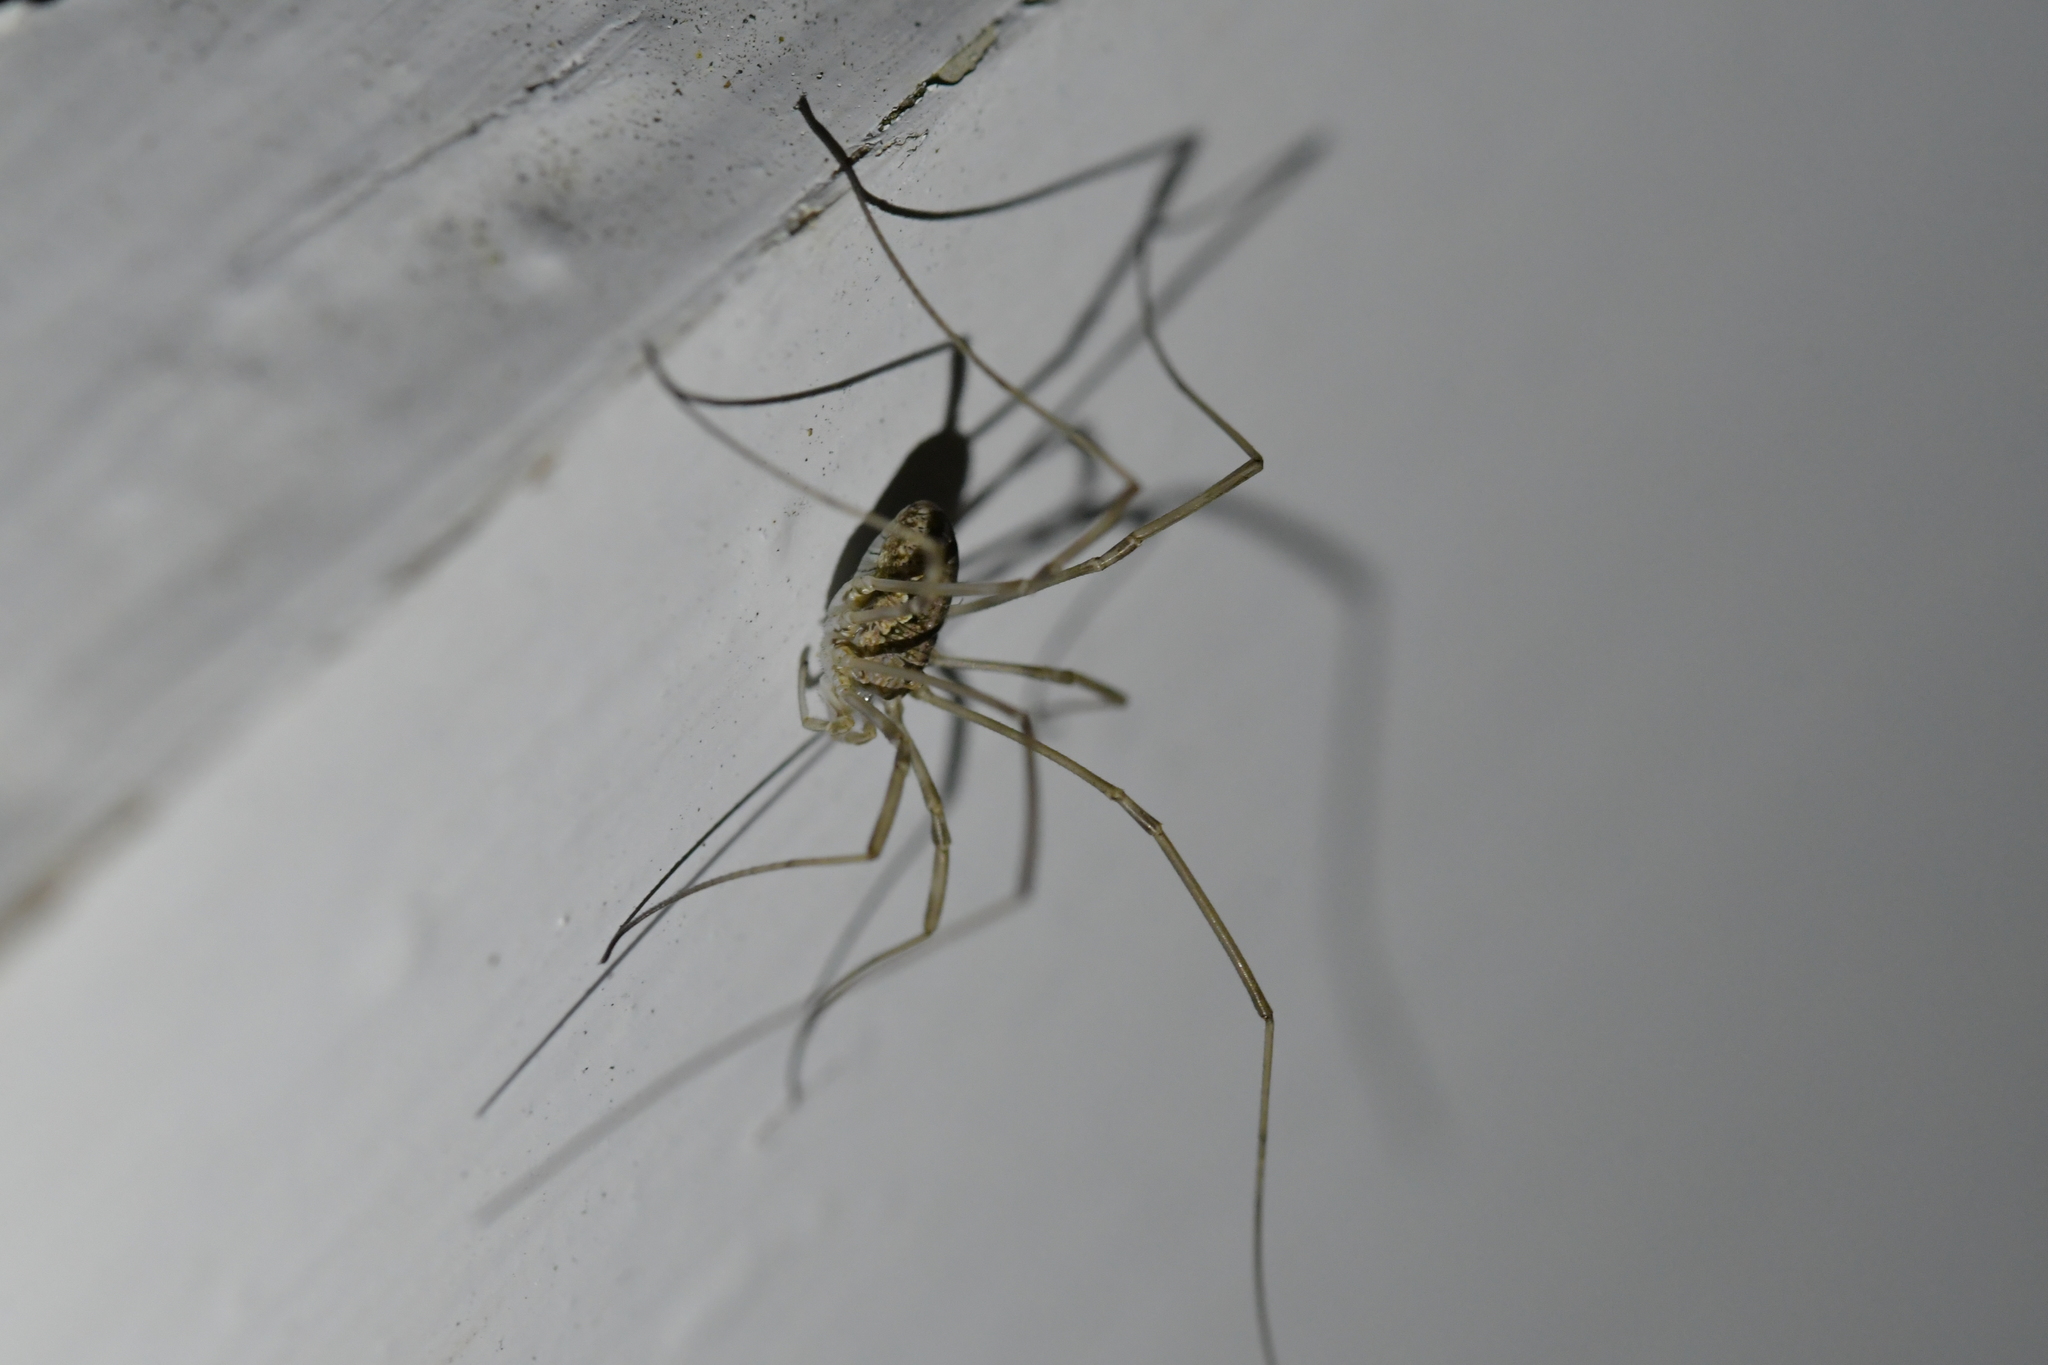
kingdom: Animalia
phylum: Arthropoda
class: Arachnida
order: Opiliones
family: Phalangiidae
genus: Phalangium
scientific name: Phalangium opilio
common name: Daddy longleg
